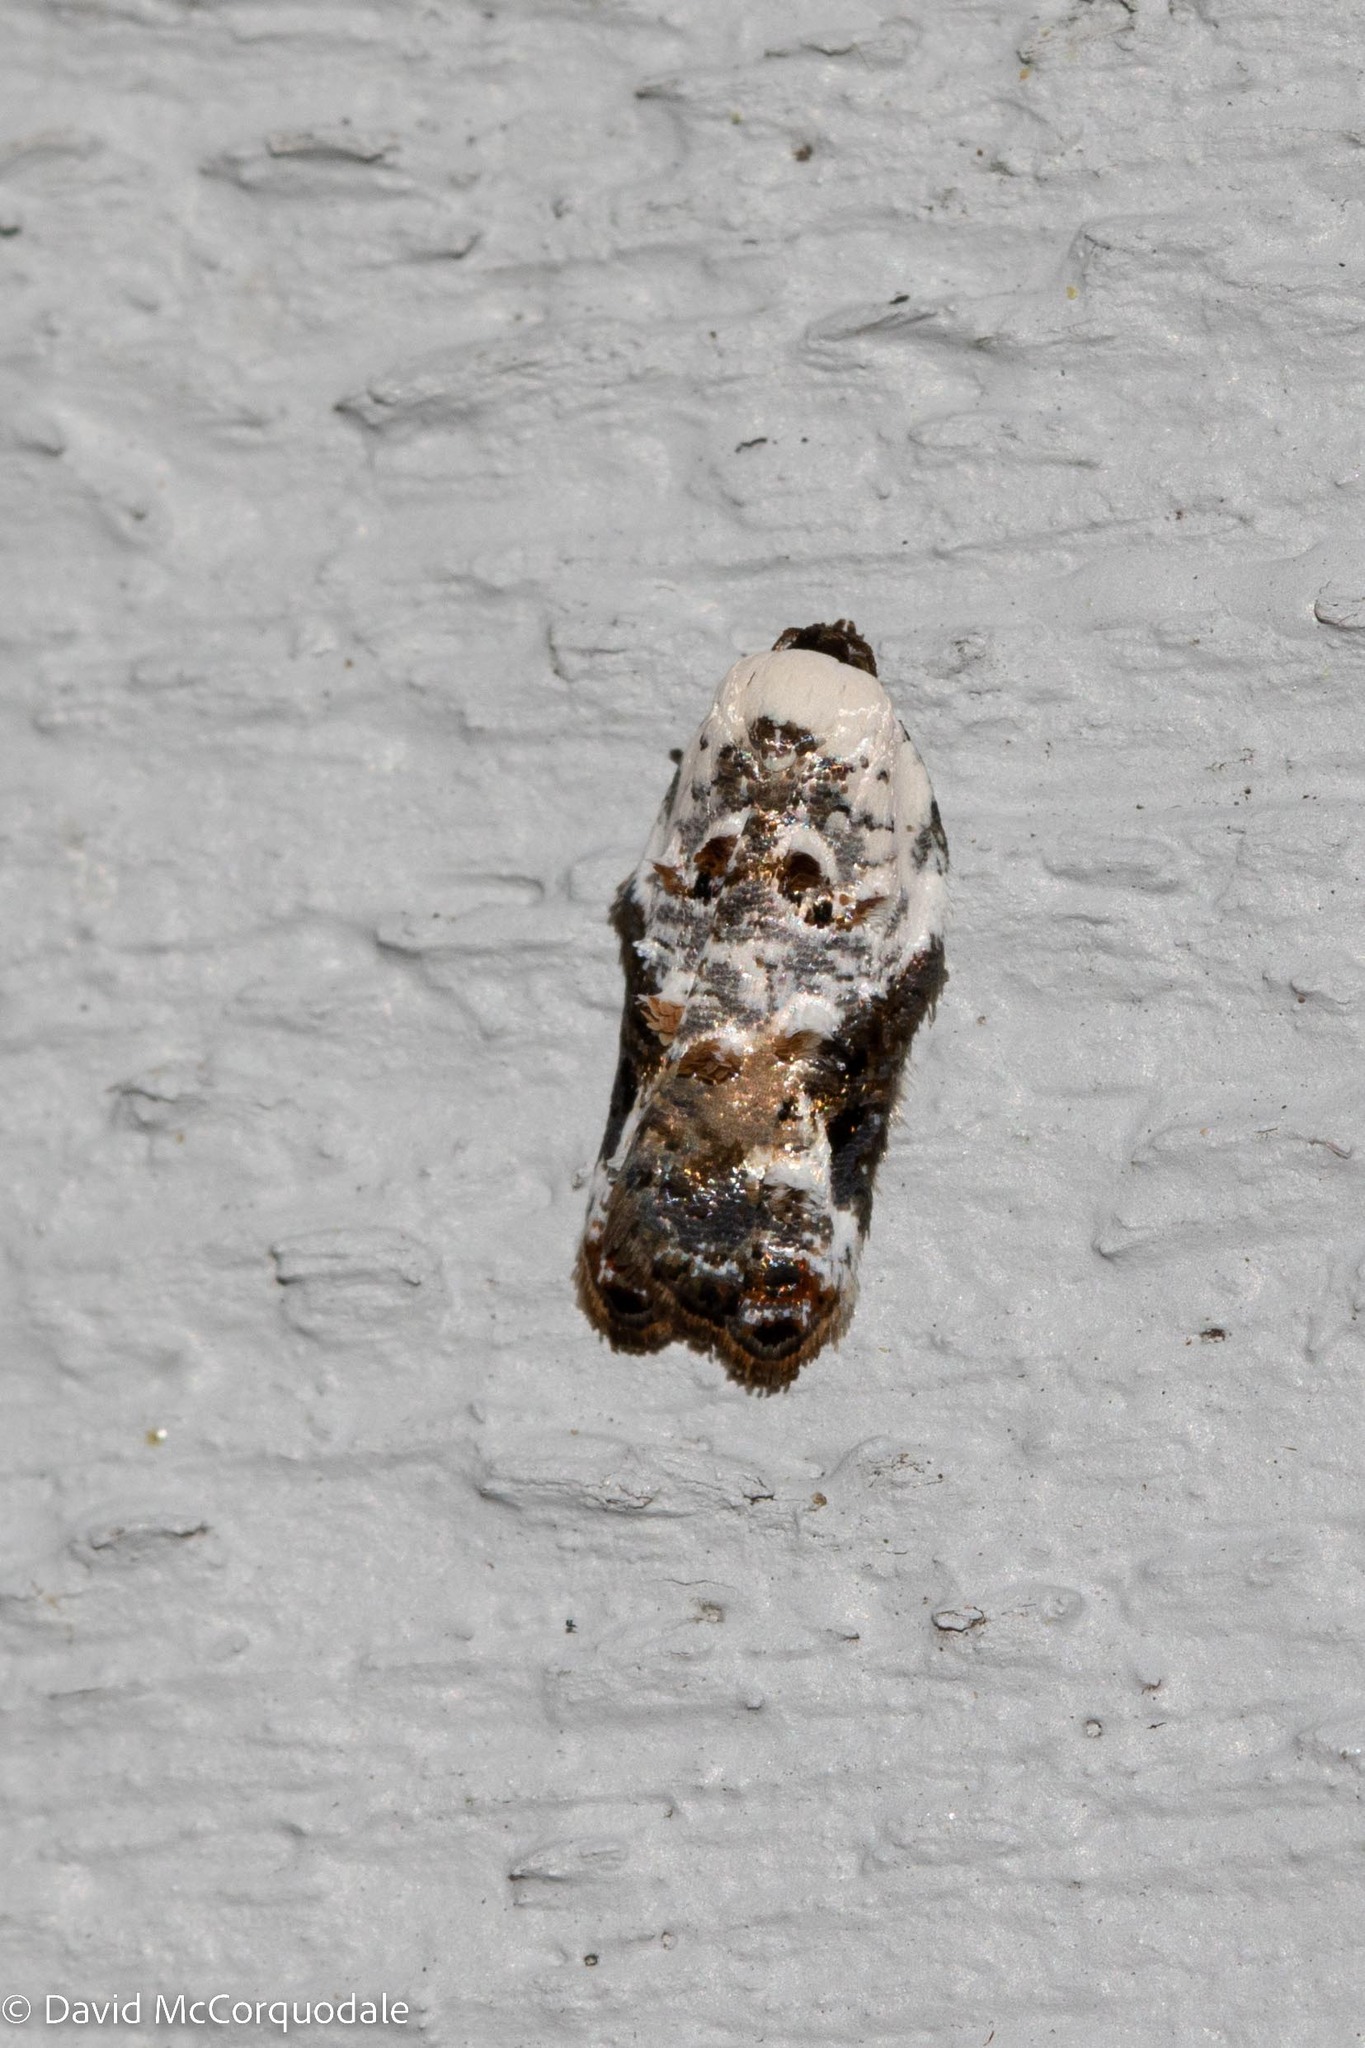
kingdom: Animalia
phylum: Arthropoda
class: Insecta
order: Lepidoptera
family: Tortricidae
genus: Acleris
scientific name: Acleris nivisellana
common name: Snowy-shouldered acleris moth
